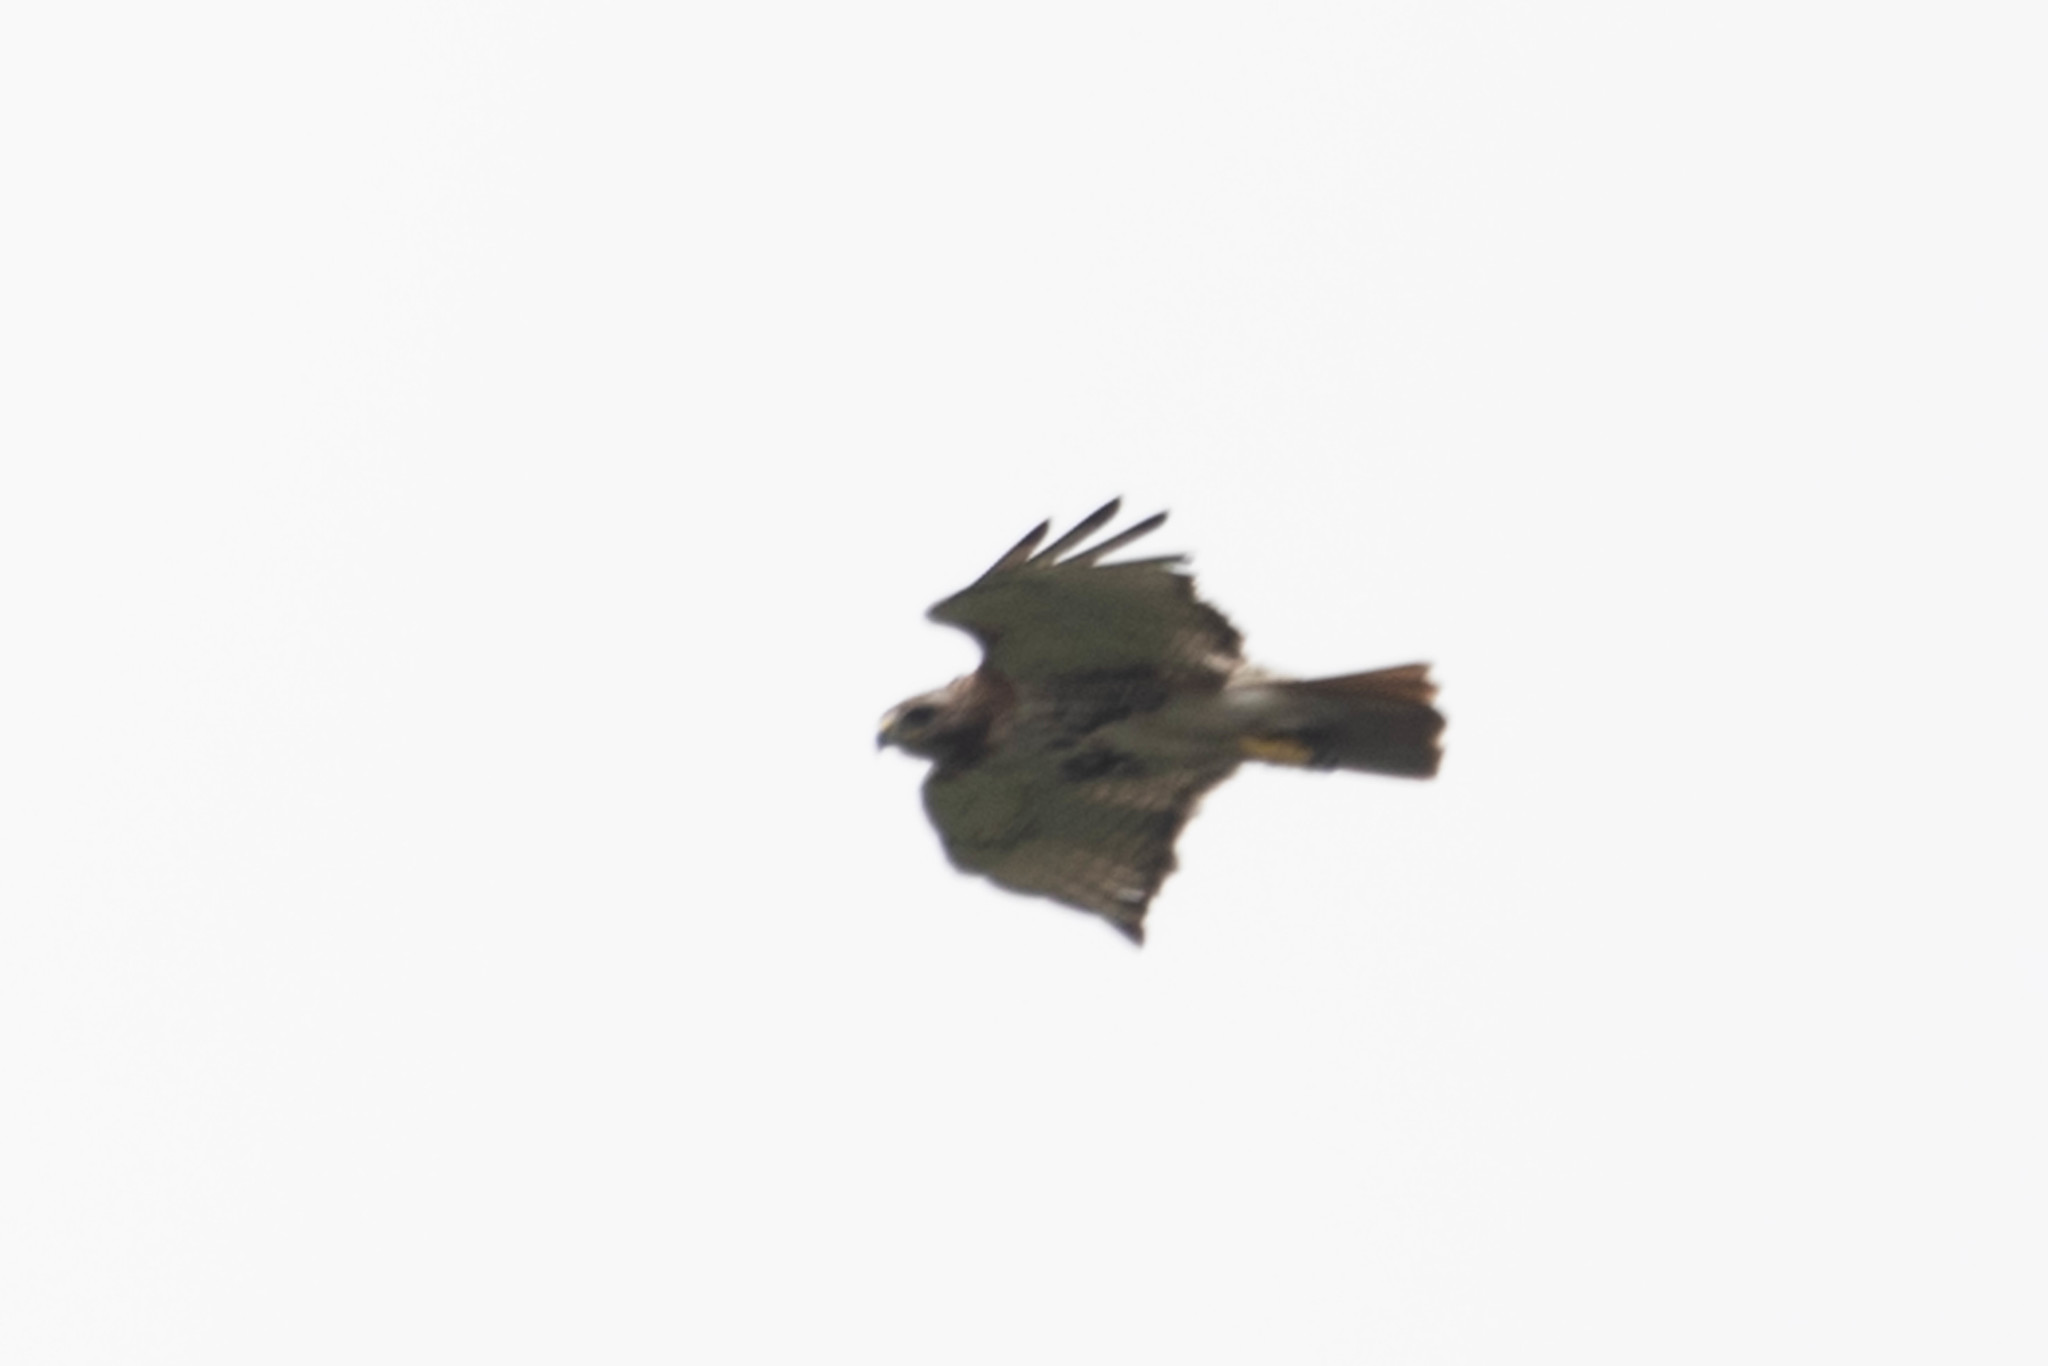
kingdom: Animalia
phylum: Chordata
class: Aves
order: Accipitriformes
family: Accipitridae
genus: Buteo
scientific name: Buteo jamaicensis
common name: Red-tailed hawk
